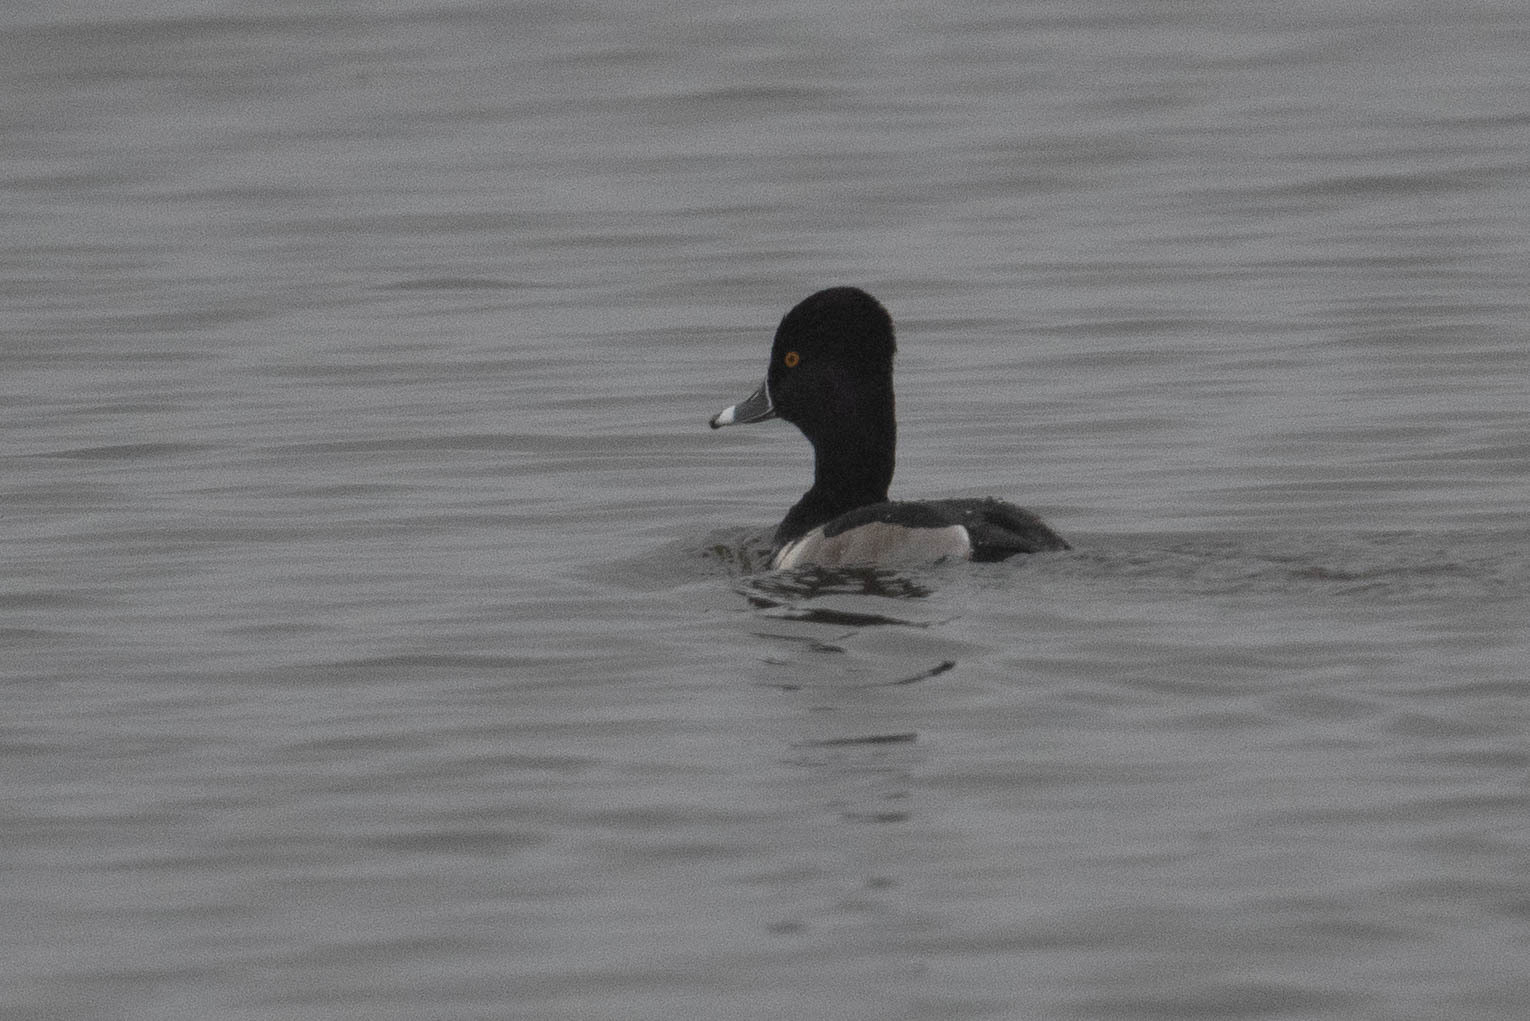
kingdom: Animalia
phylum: Chordata
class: Aves
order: Anseriformes
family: Anatidae
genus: Aythya
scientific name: Aythya collaris
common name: Ring-necked duck
